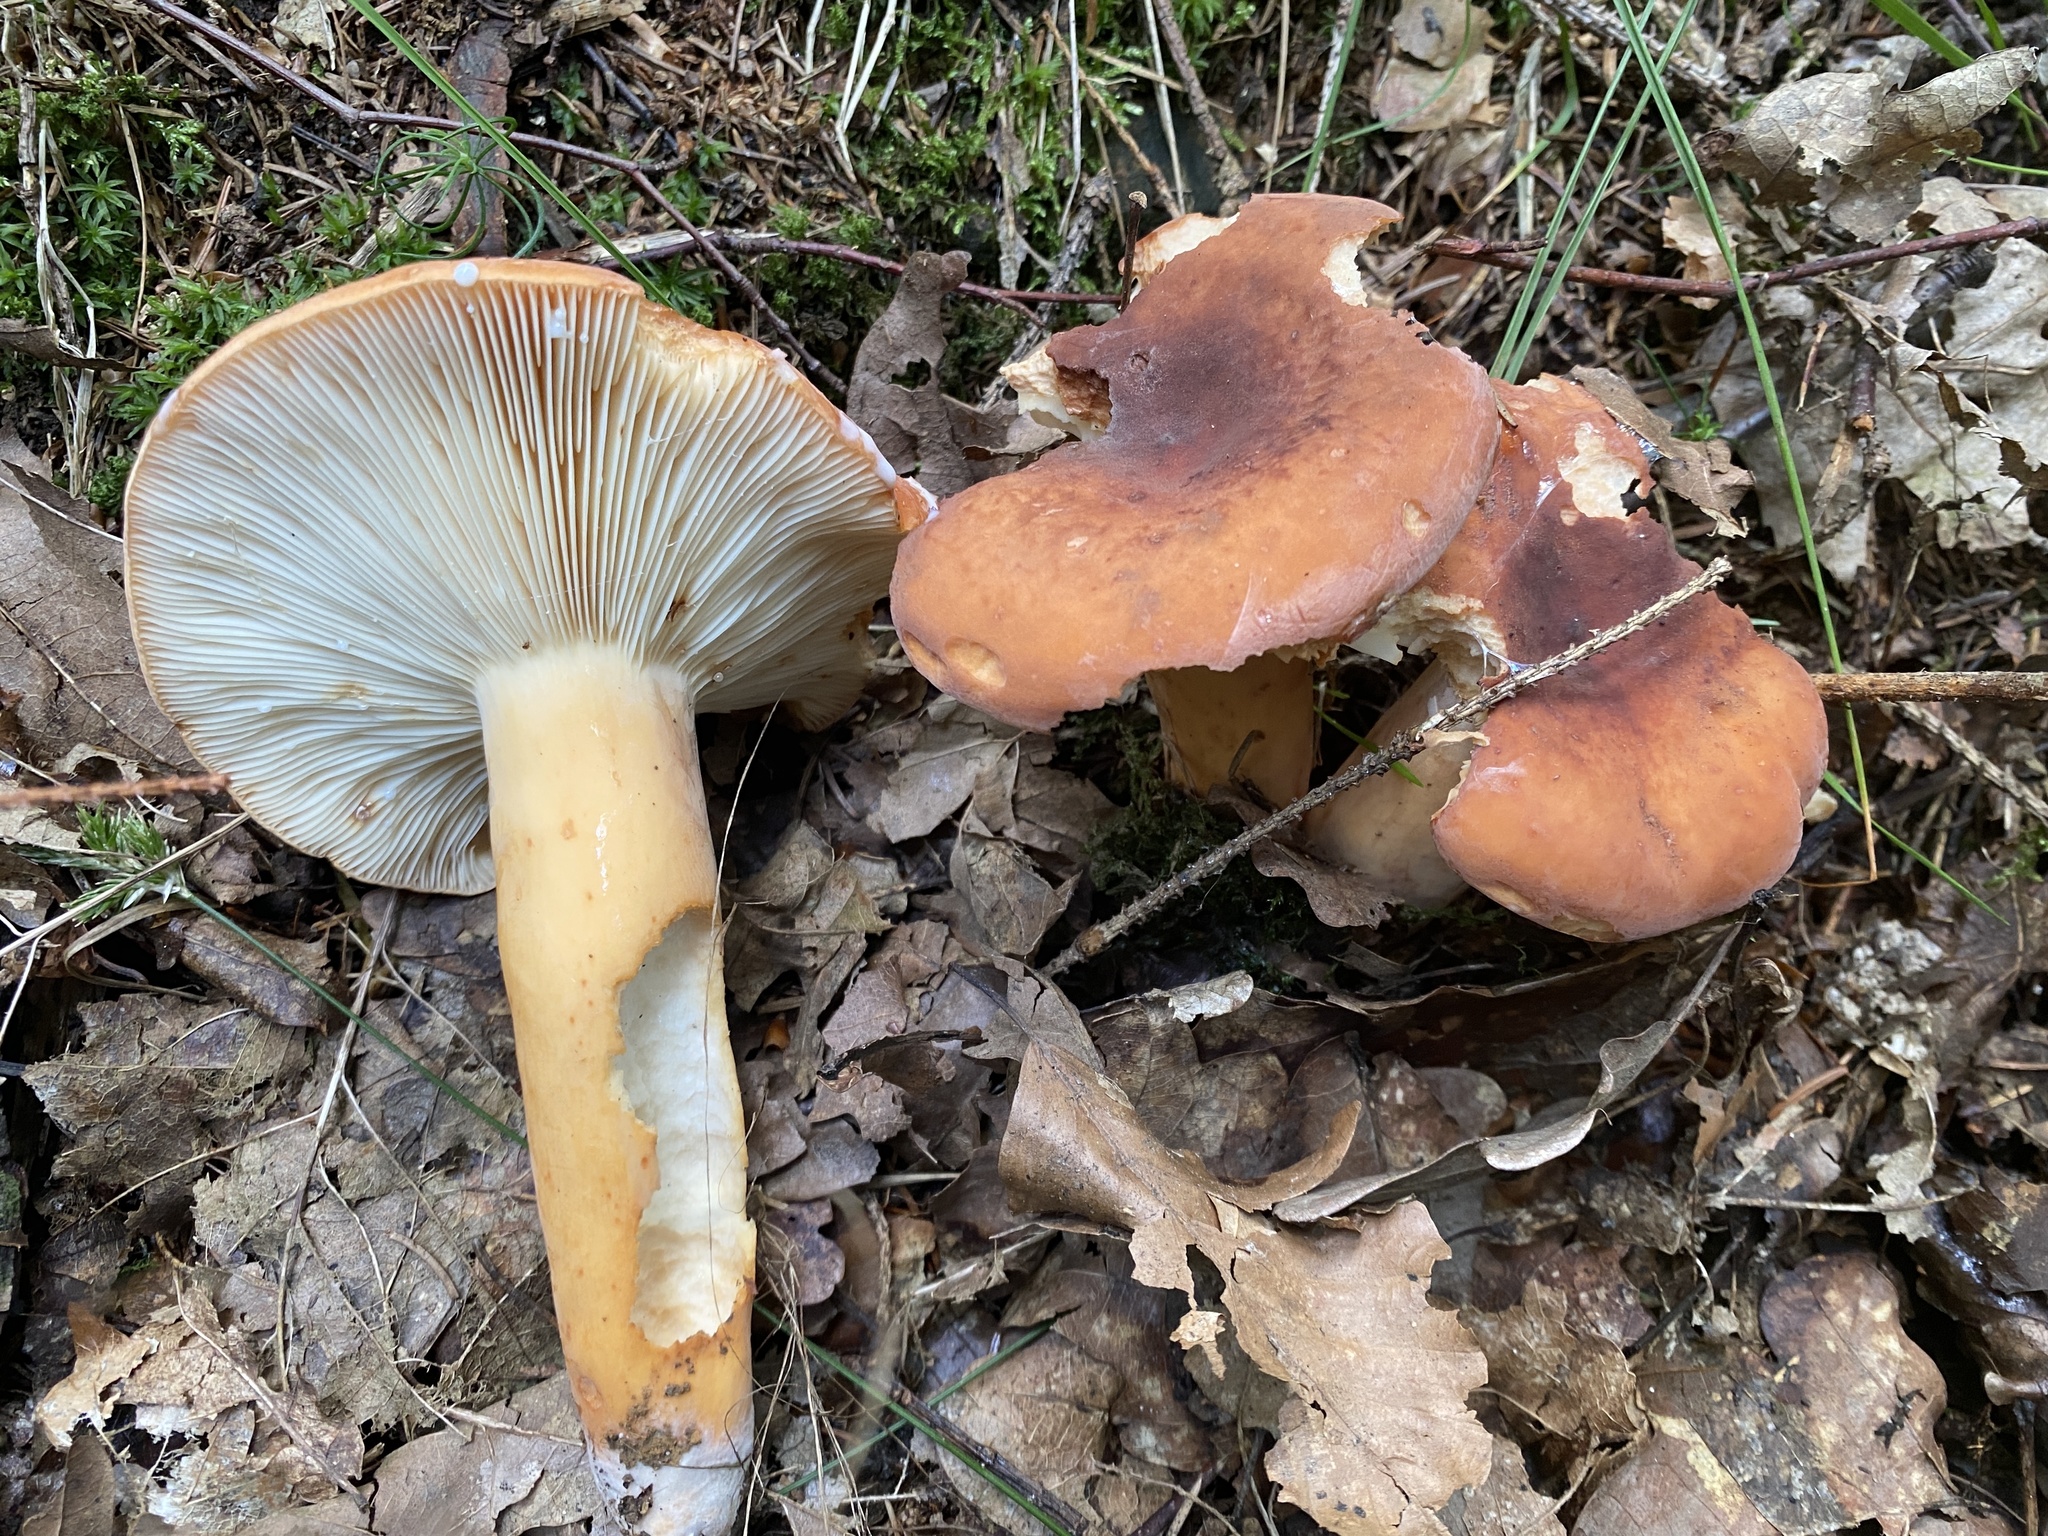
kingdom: Fungi
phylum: Basidiomycota
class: Agaricomycetes
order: Russulales
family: Russulaceae
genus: Lactifluus
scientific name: Lactifluus volemus
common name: Fishy milkcap
